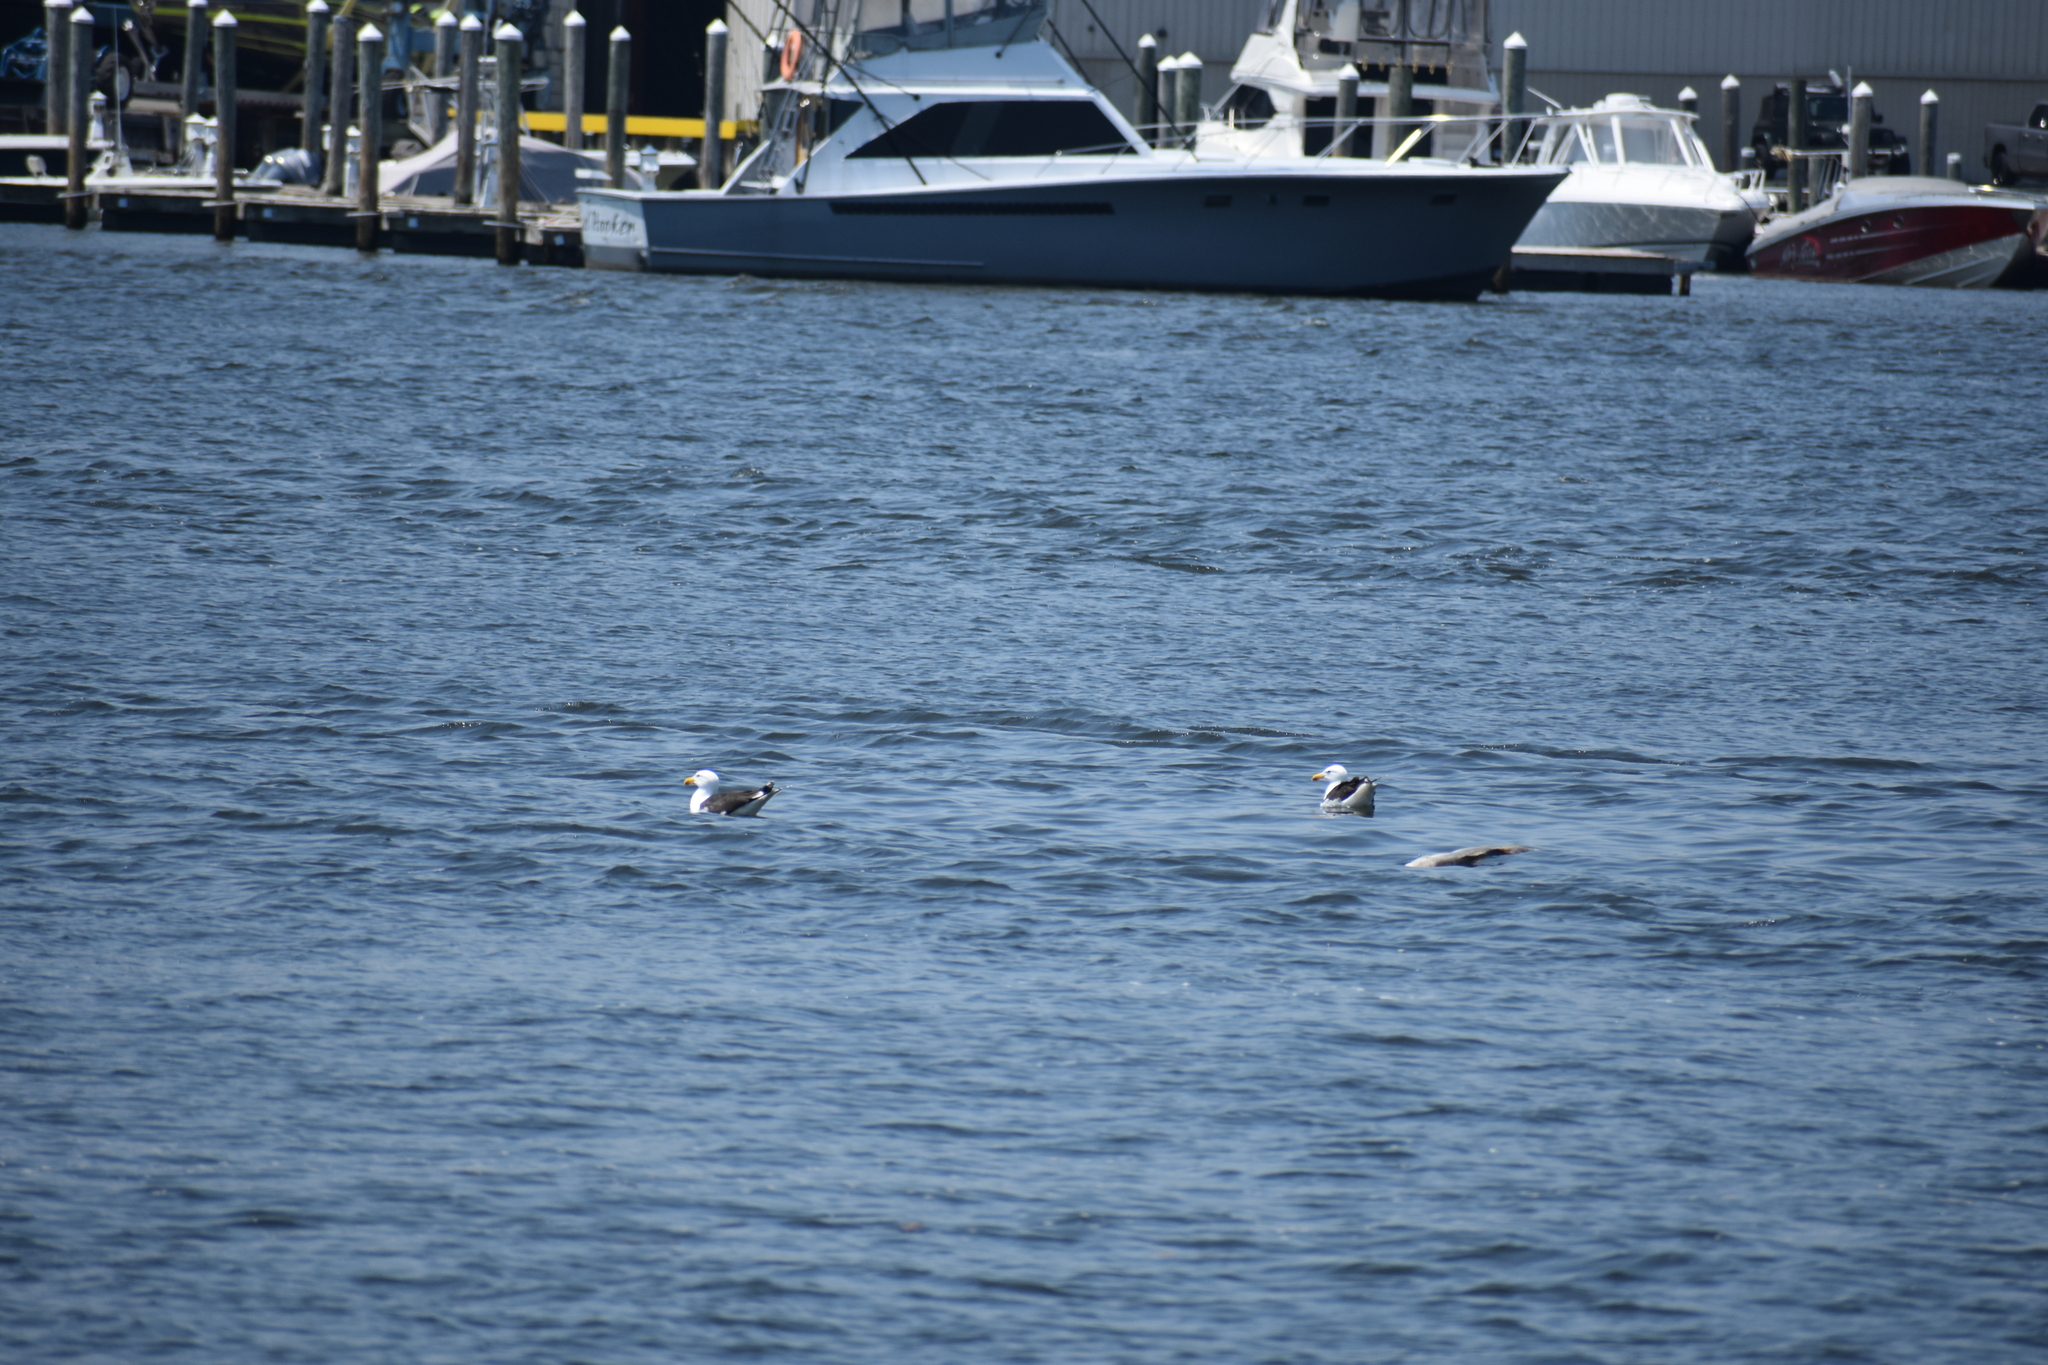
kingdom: Animalia
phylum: Chordata
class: Aves
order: Charadriiformes
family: Laridae
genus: Larus
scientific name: Larus marinus
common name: Great black-backed gull
